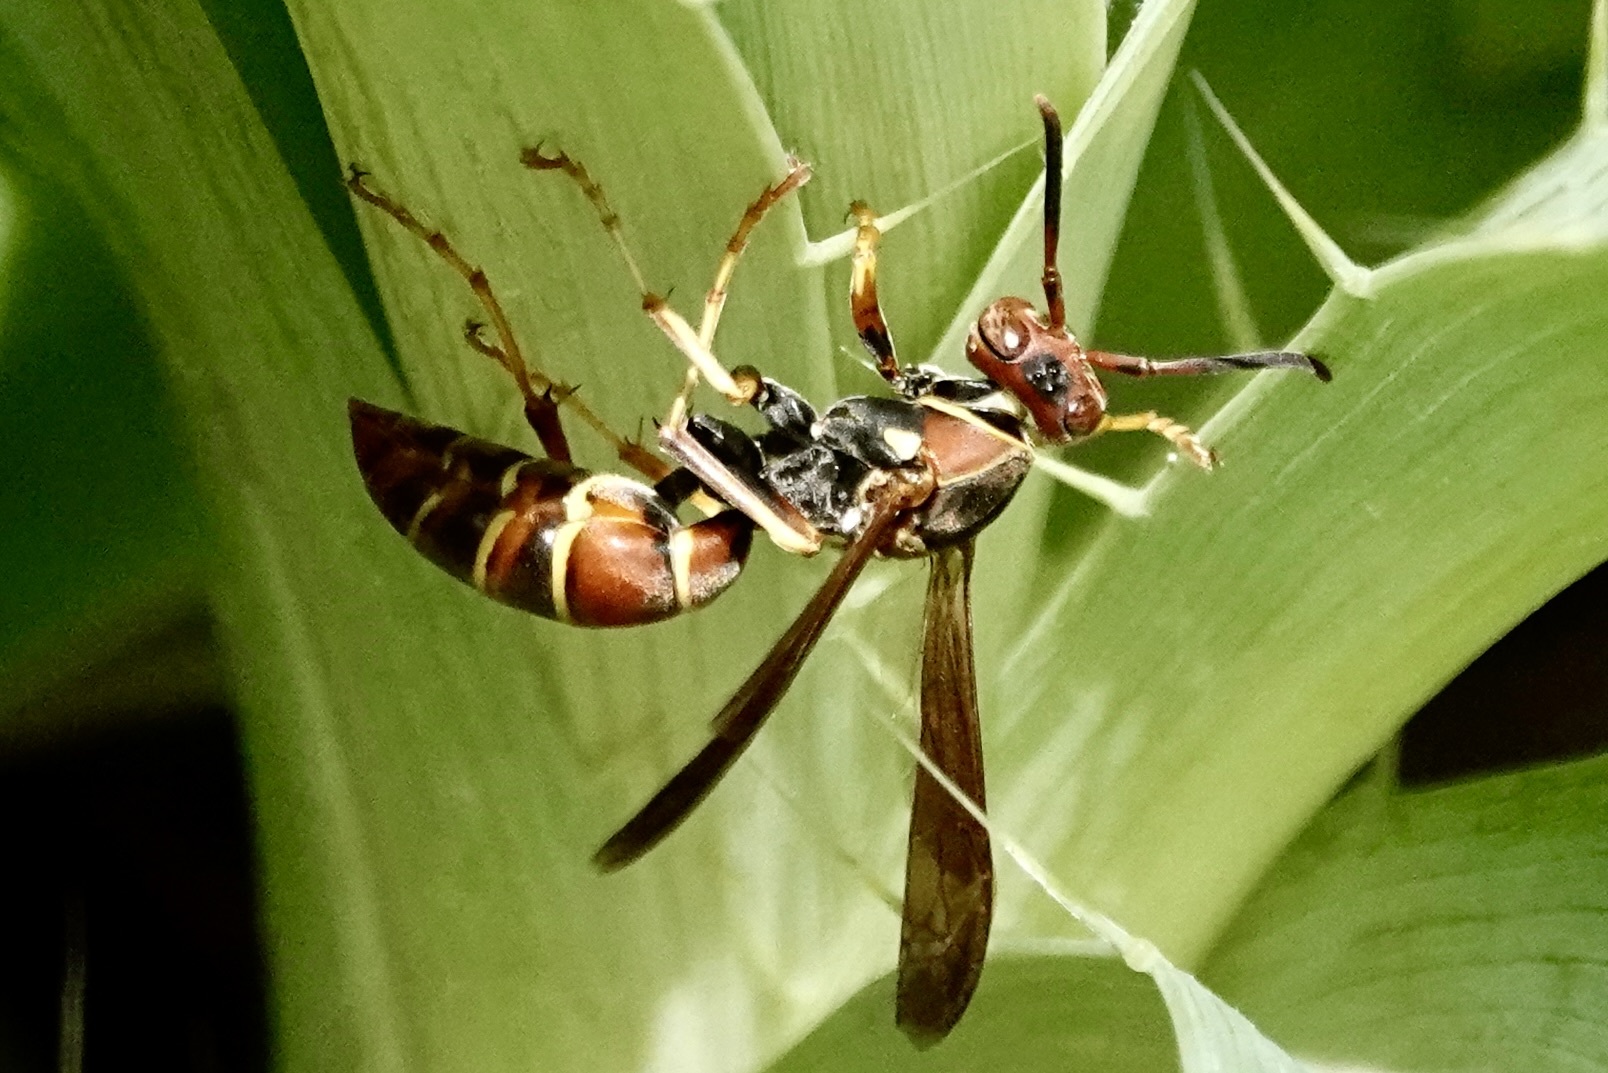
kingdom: Animalia
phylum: Arthropoda
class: Insecta
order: Hymenoptera
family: Eumenidae
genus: Polistes
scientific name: Polistes dorsalis
